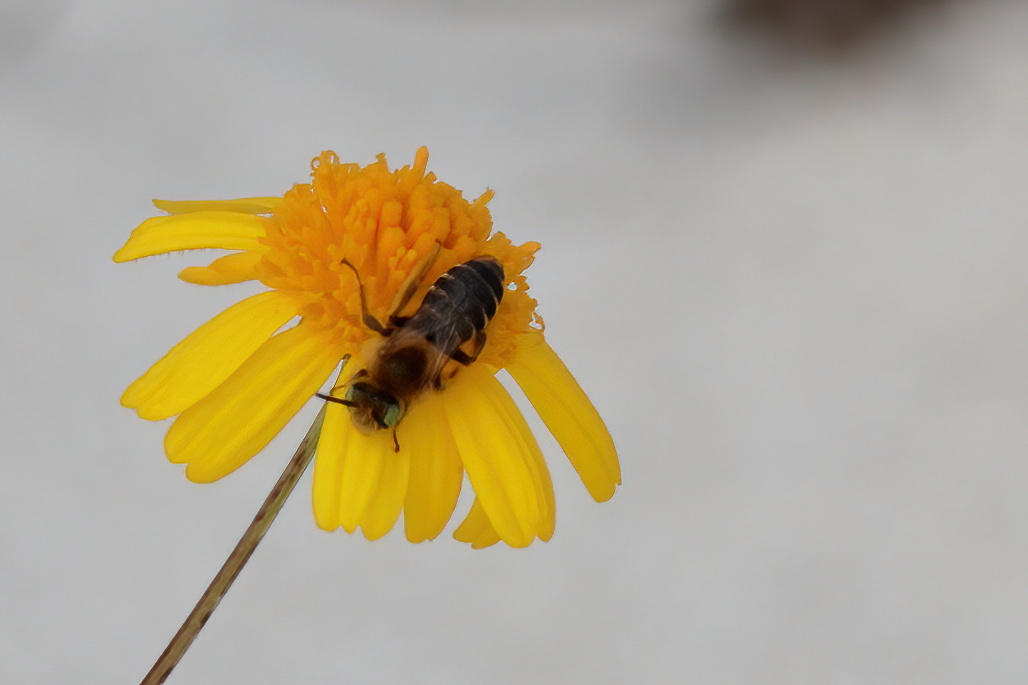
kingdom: Animalia
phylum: Arthropoda
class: Insecta
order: Hymenoptera
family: Melittidae
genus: Hesperapis
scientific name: Hesperapis oraria
